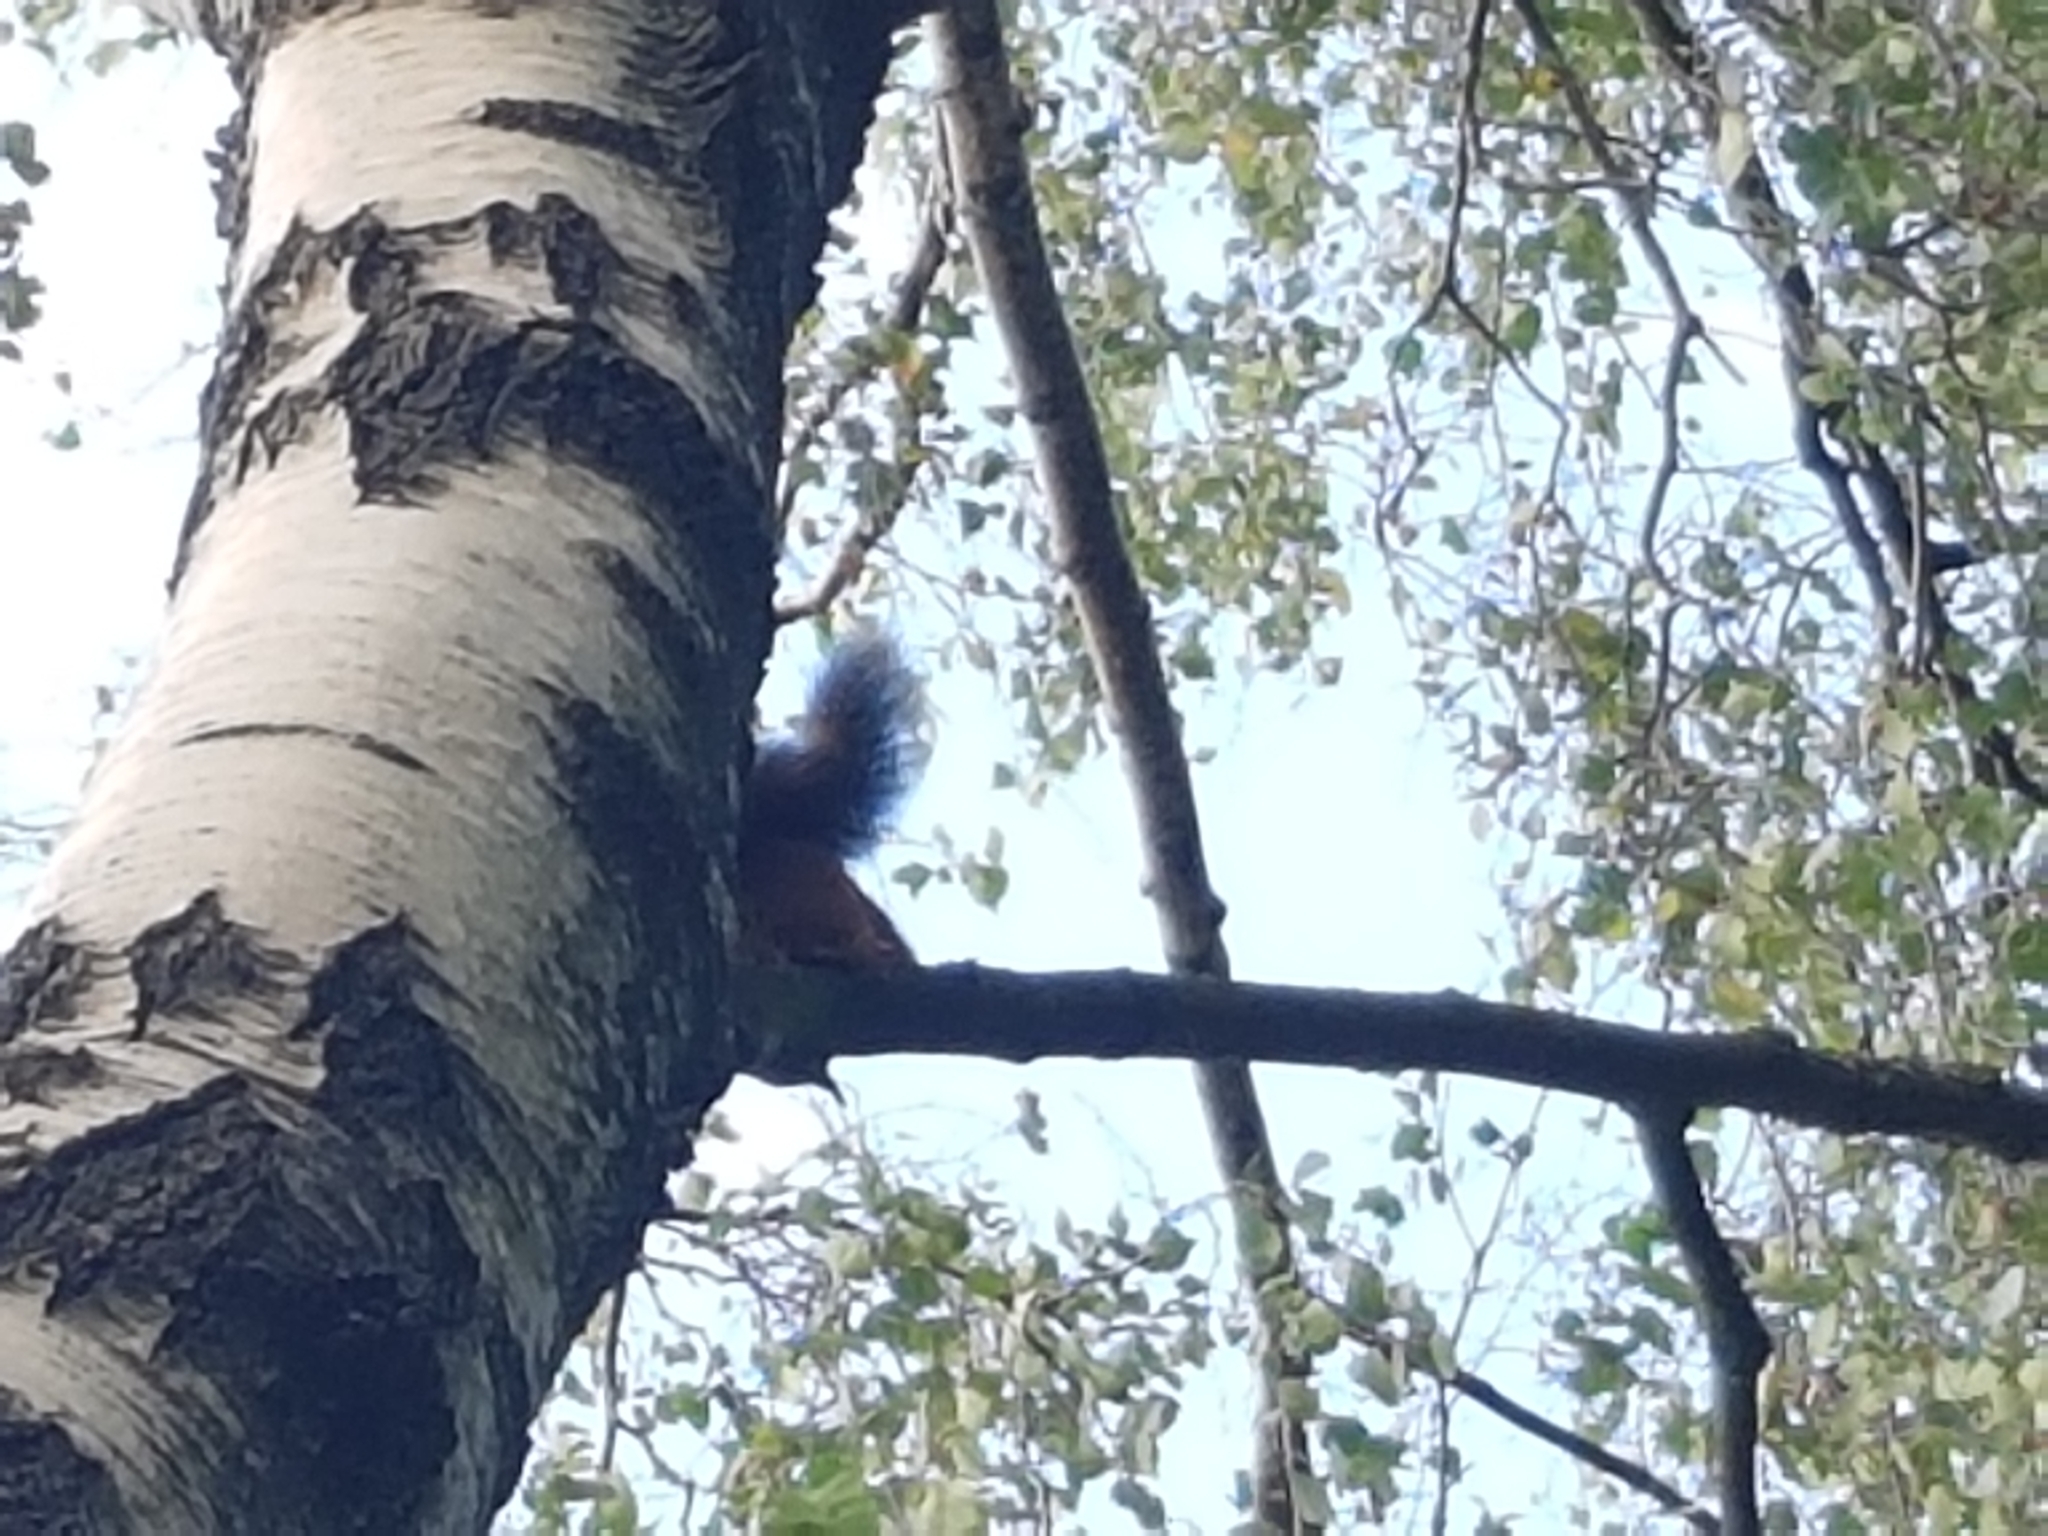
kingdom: Animalia
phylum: Chordata
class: Mammalia
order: Rodentia
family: Sciuridae
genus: Sciurus
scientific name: Sciurus vulgaris
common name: Eurasian red squirrel
